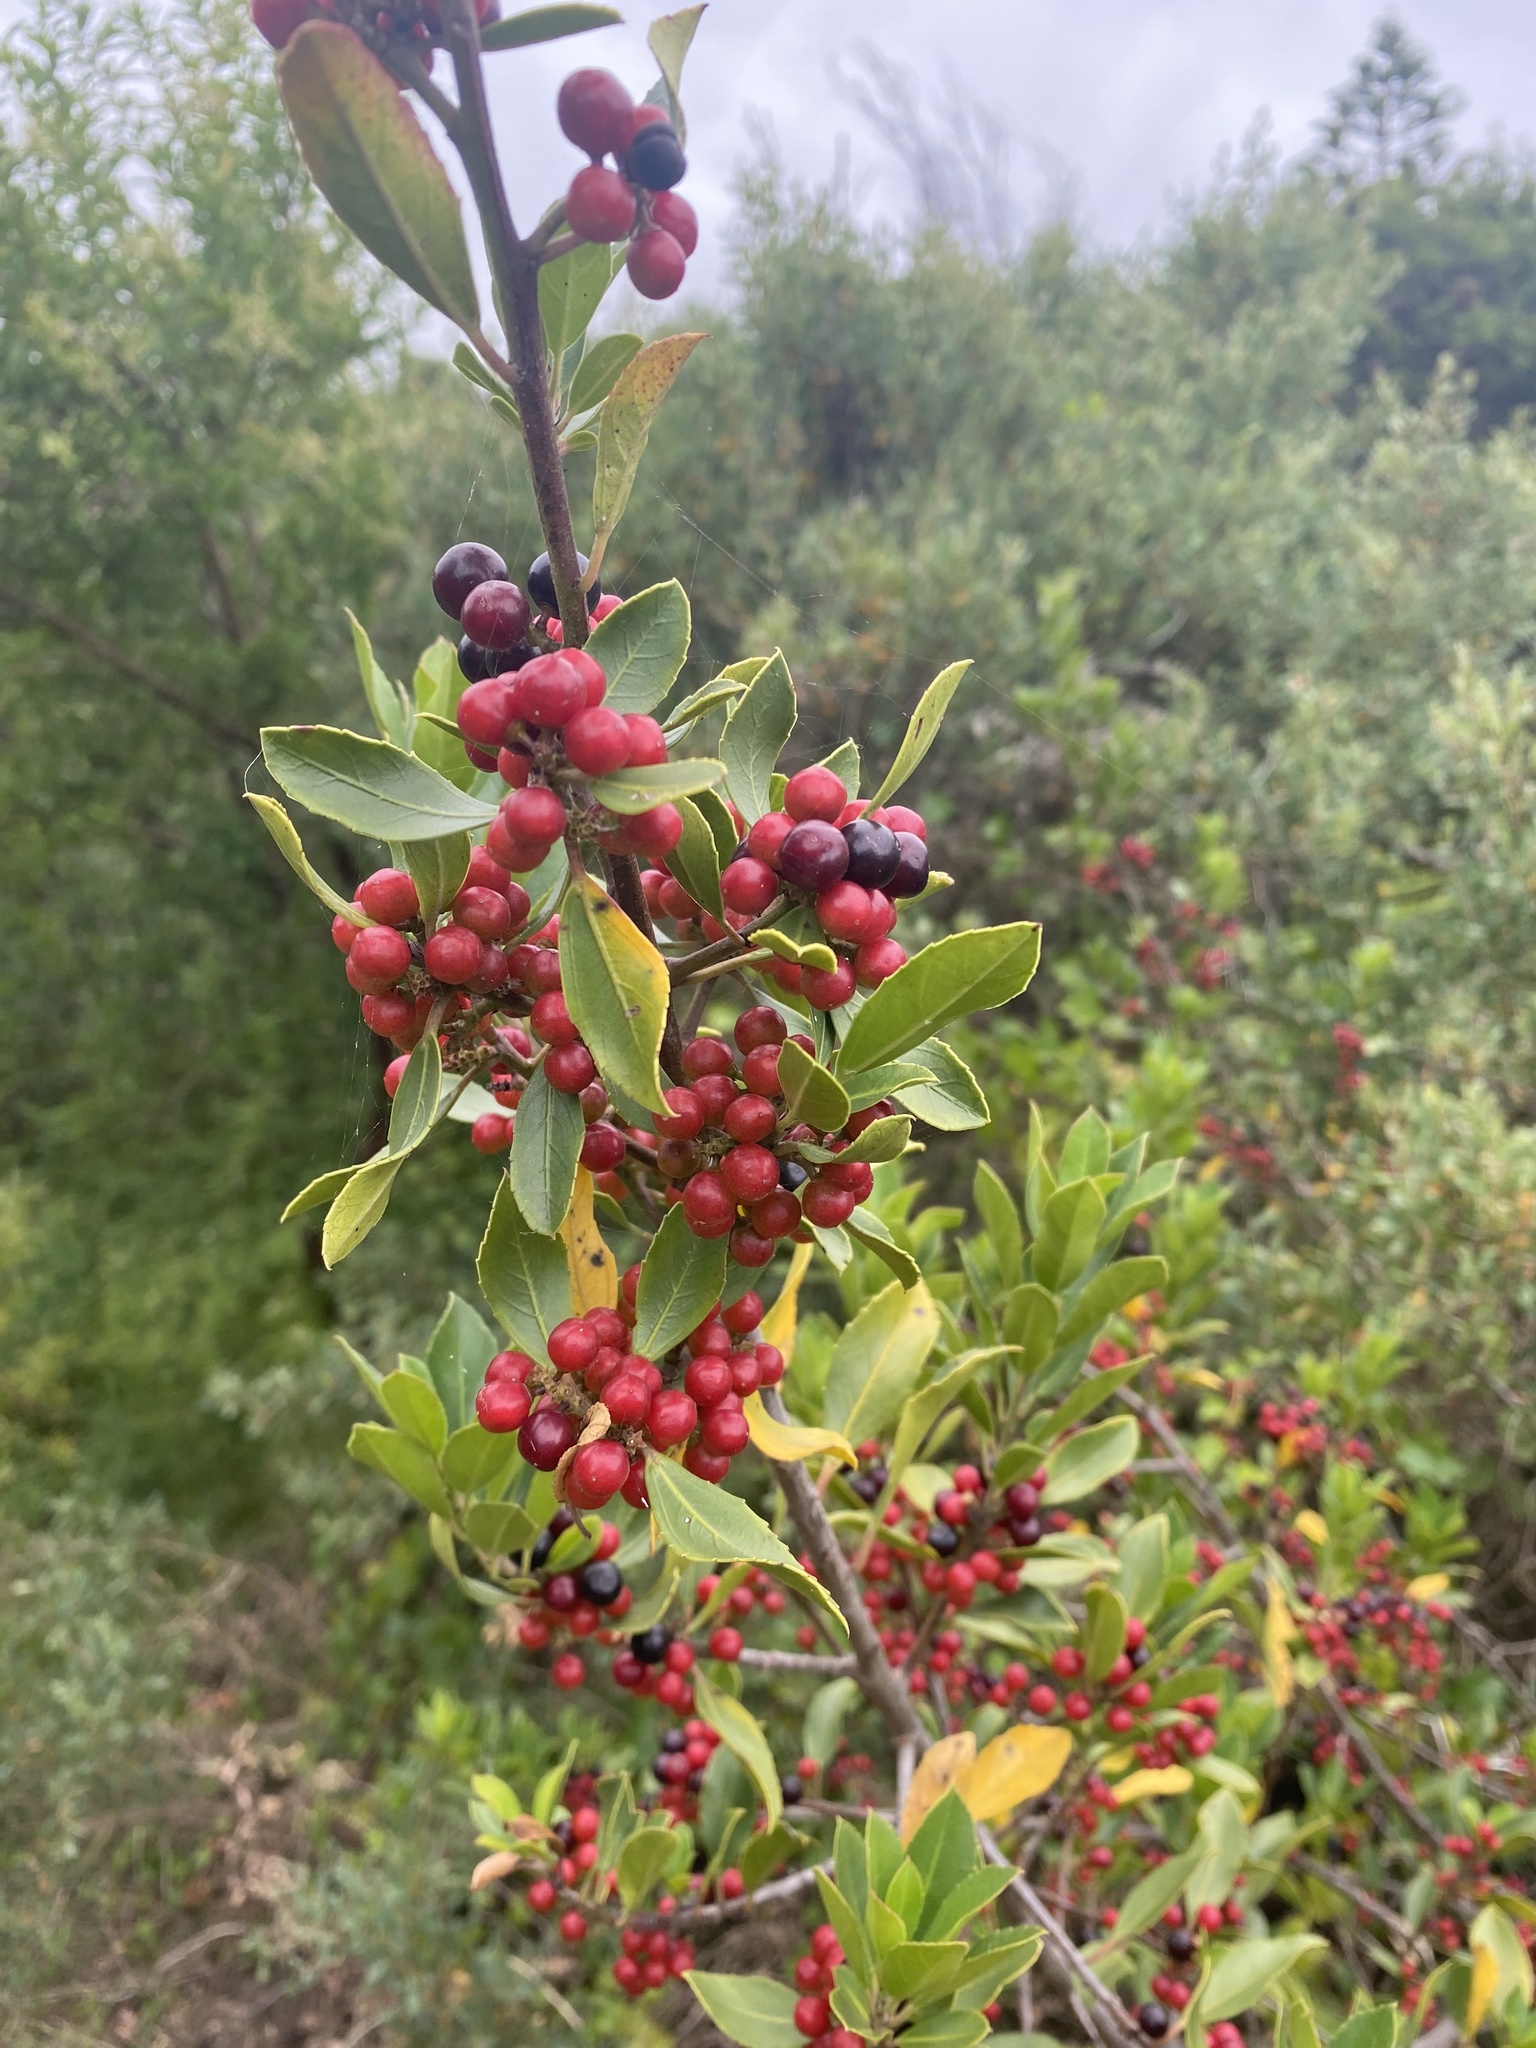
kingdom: Plantae
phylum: Tracheophyta
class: Magnoliopsida
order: Rosales
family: Rhamnaceae
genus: Rhamnus
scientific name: Rhamnus alaternus
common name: Mediterranean buckthorn
